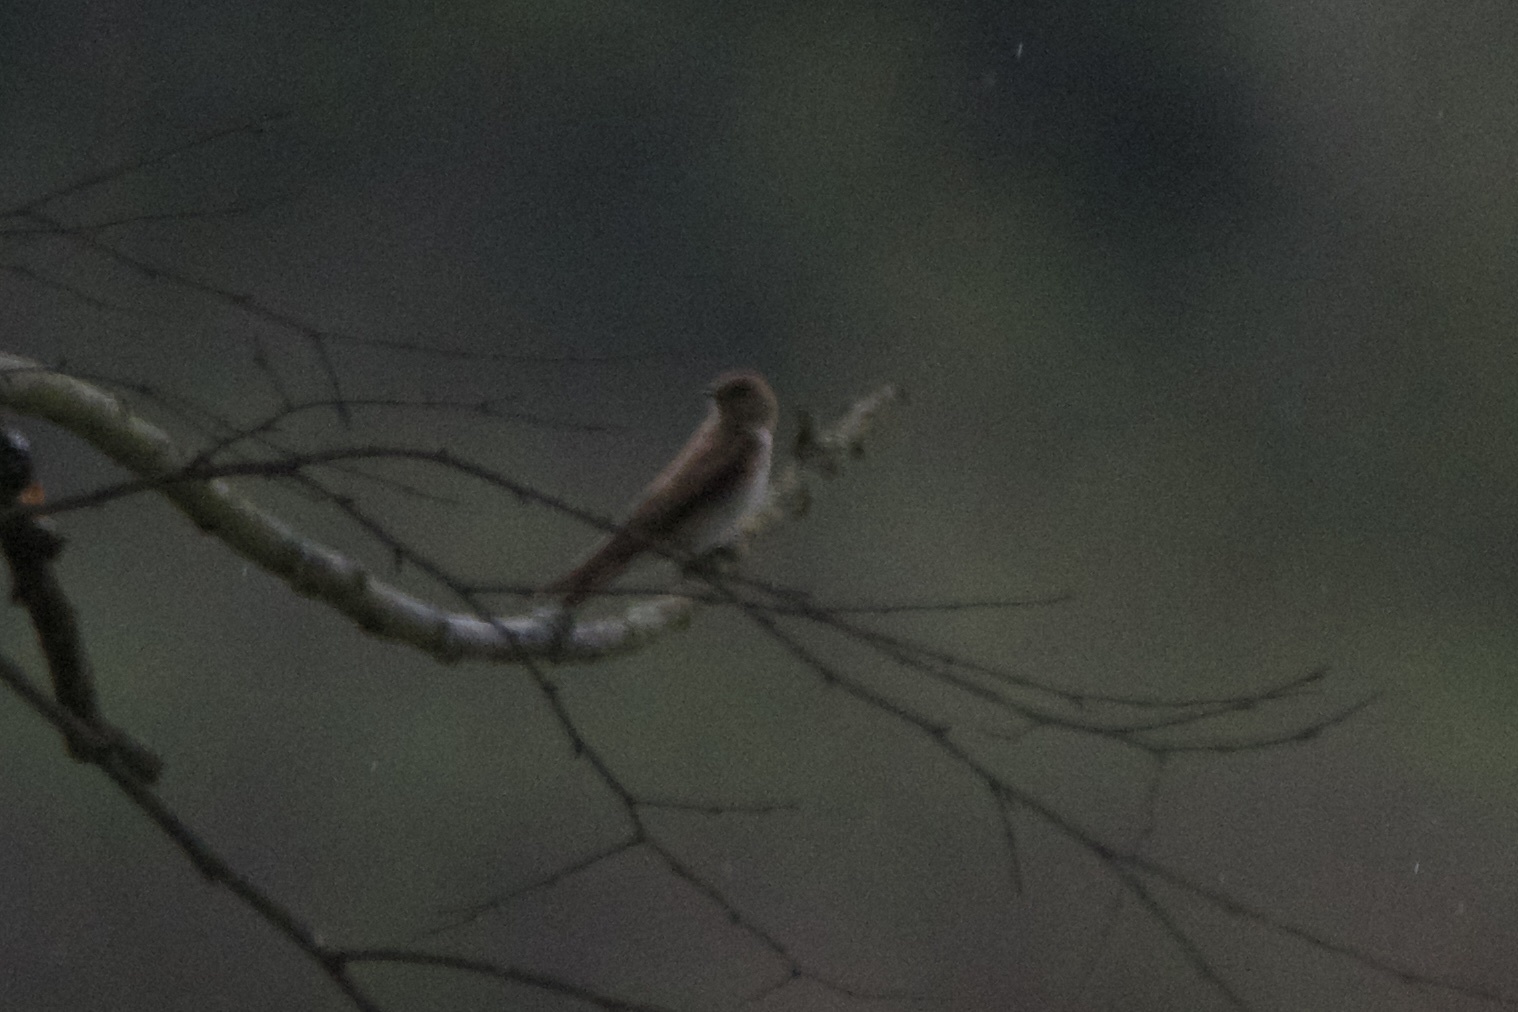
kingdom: Animalia
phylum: Chordata
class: Aves
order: Passeriformes
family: Hirundinidae
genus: Stelgidopteryx
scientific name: Stelgidopteryx serripennis
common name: Northern rough-winged swallow
